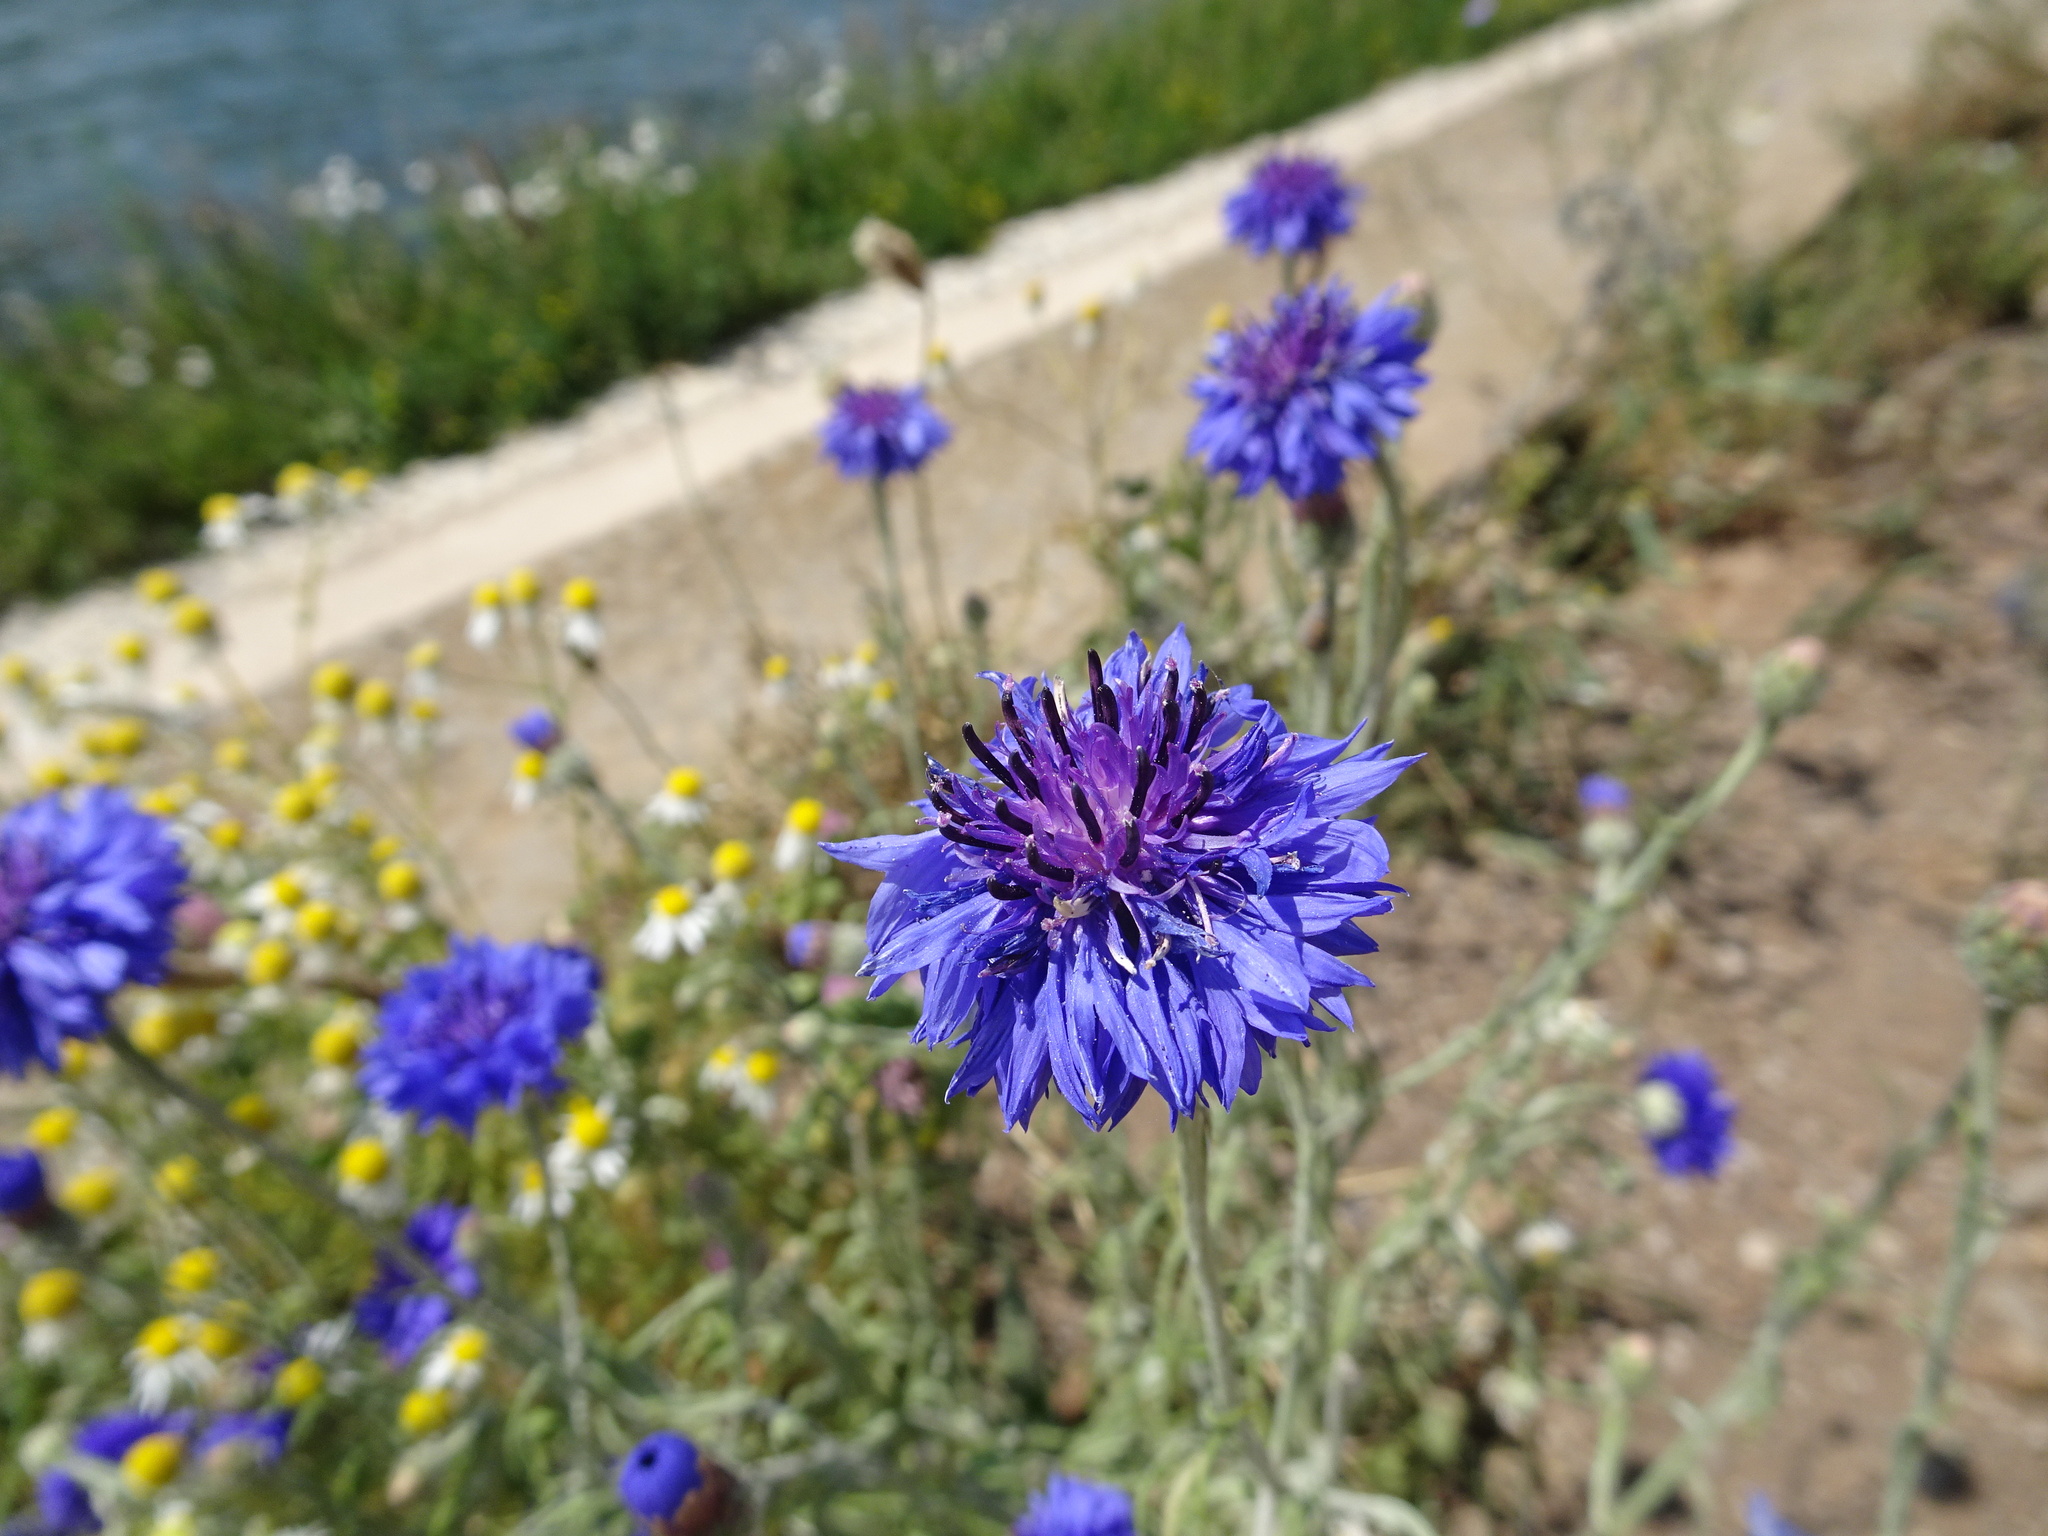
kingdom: Plantae
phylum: Tracheophyta
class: Magnoliopsida
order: Asterales
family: Asteraceae
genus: Centaurea
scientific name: Centaurea cyanus
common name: Cornflower
